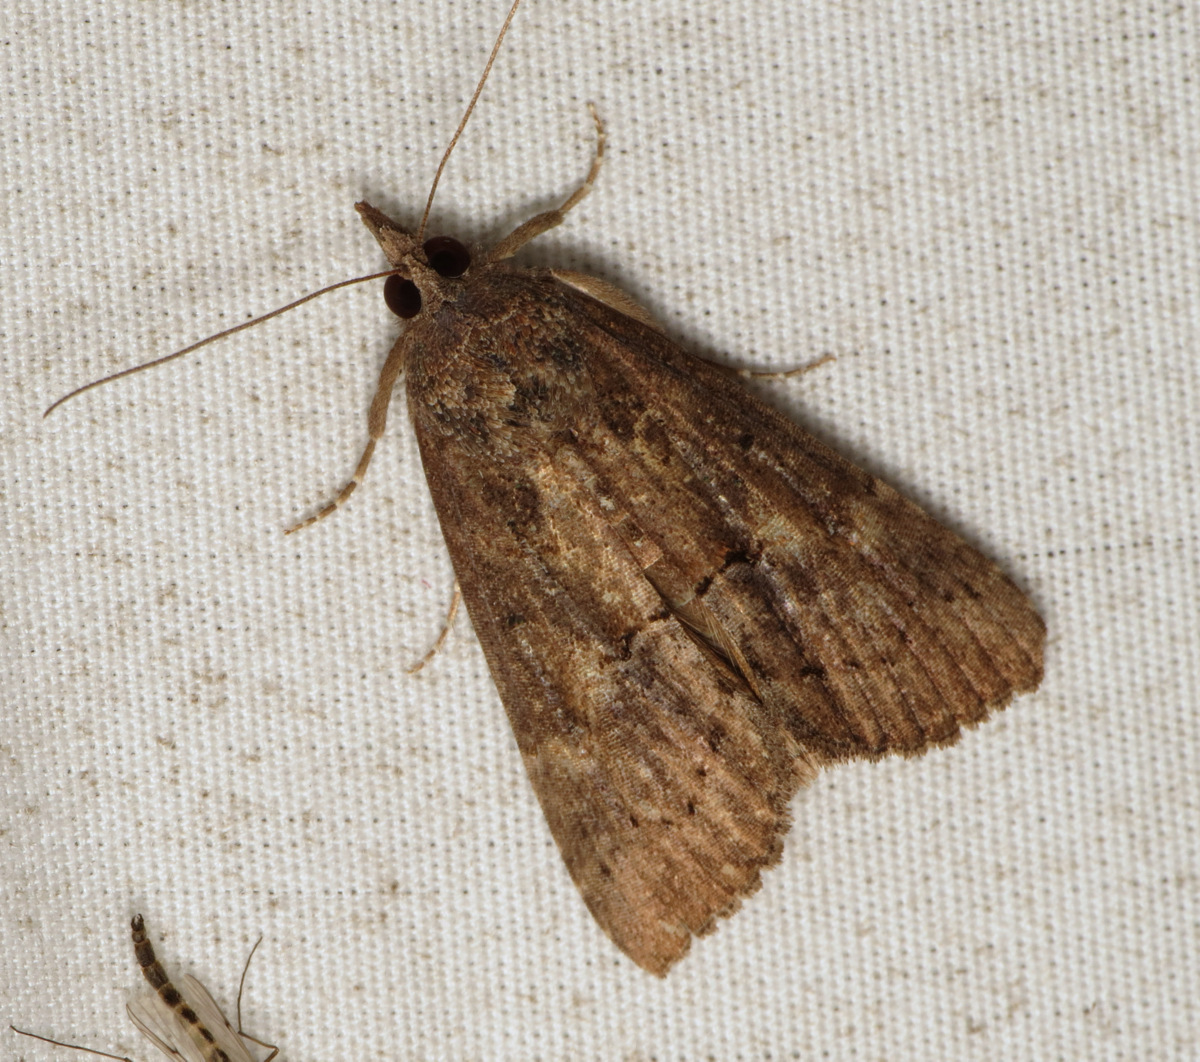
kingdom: Animalia
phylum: Arthropoda
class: Insecta
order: Lepidoptera
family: Erebidae
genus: Hypena
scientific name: Hypena scabra
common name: Green cloverworm
